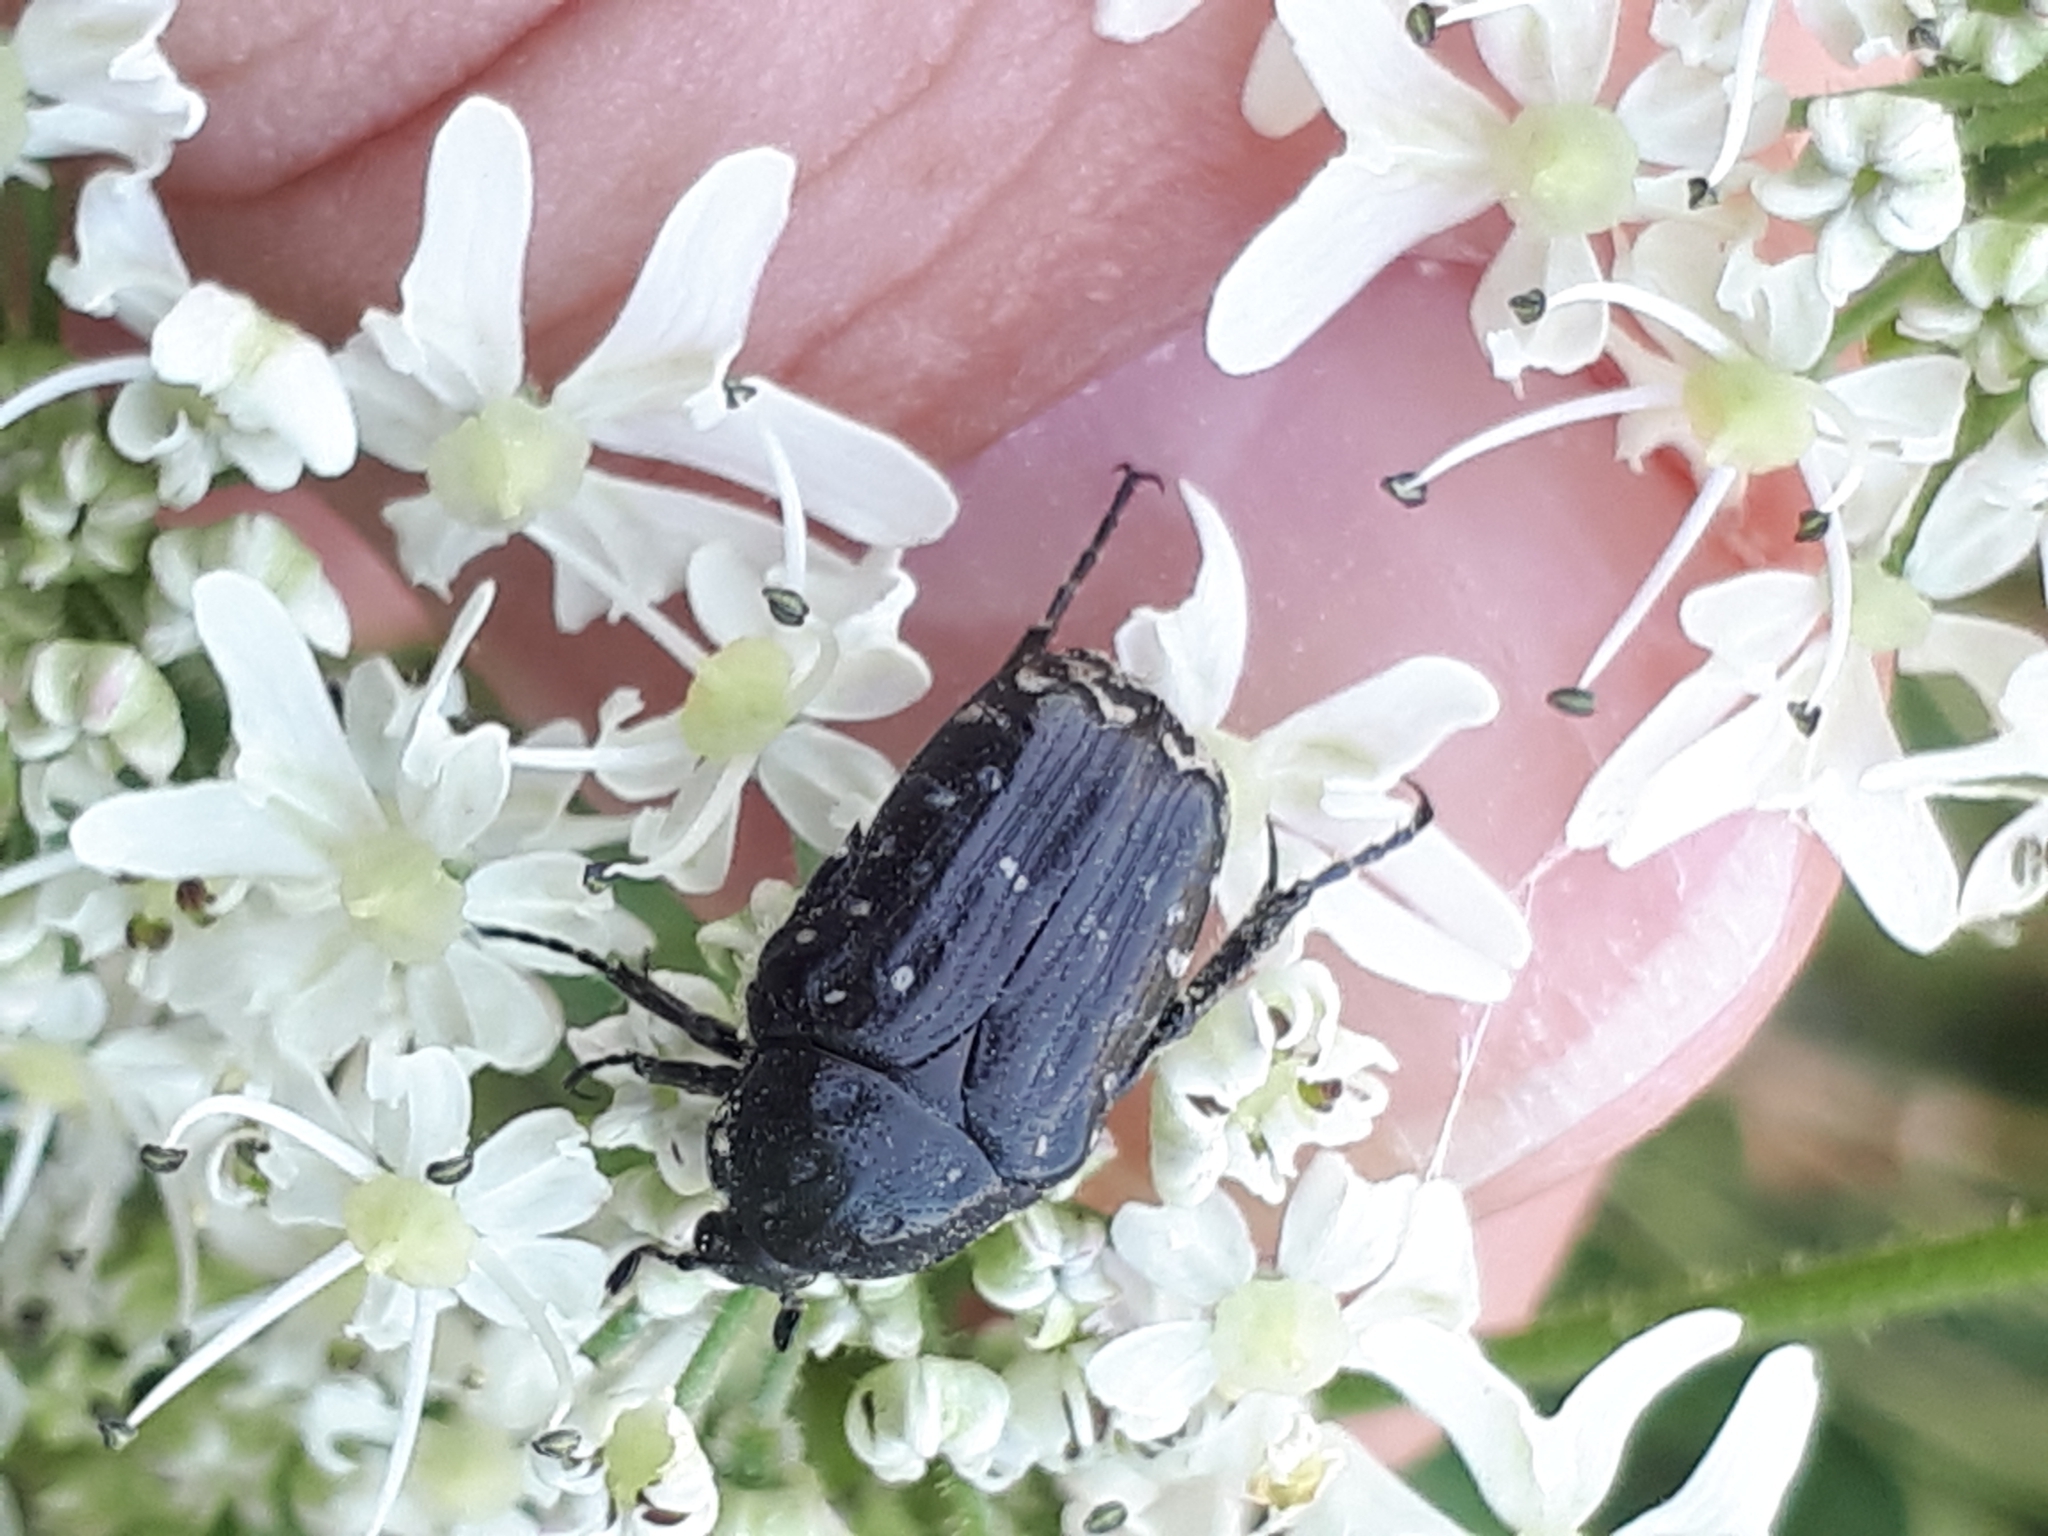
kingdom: Animalia
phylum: Arthropoda
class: Insecta
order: Coleoptera
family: Scarabaeidae
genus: Oxythyrea
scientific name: Oxythyrea funesta
